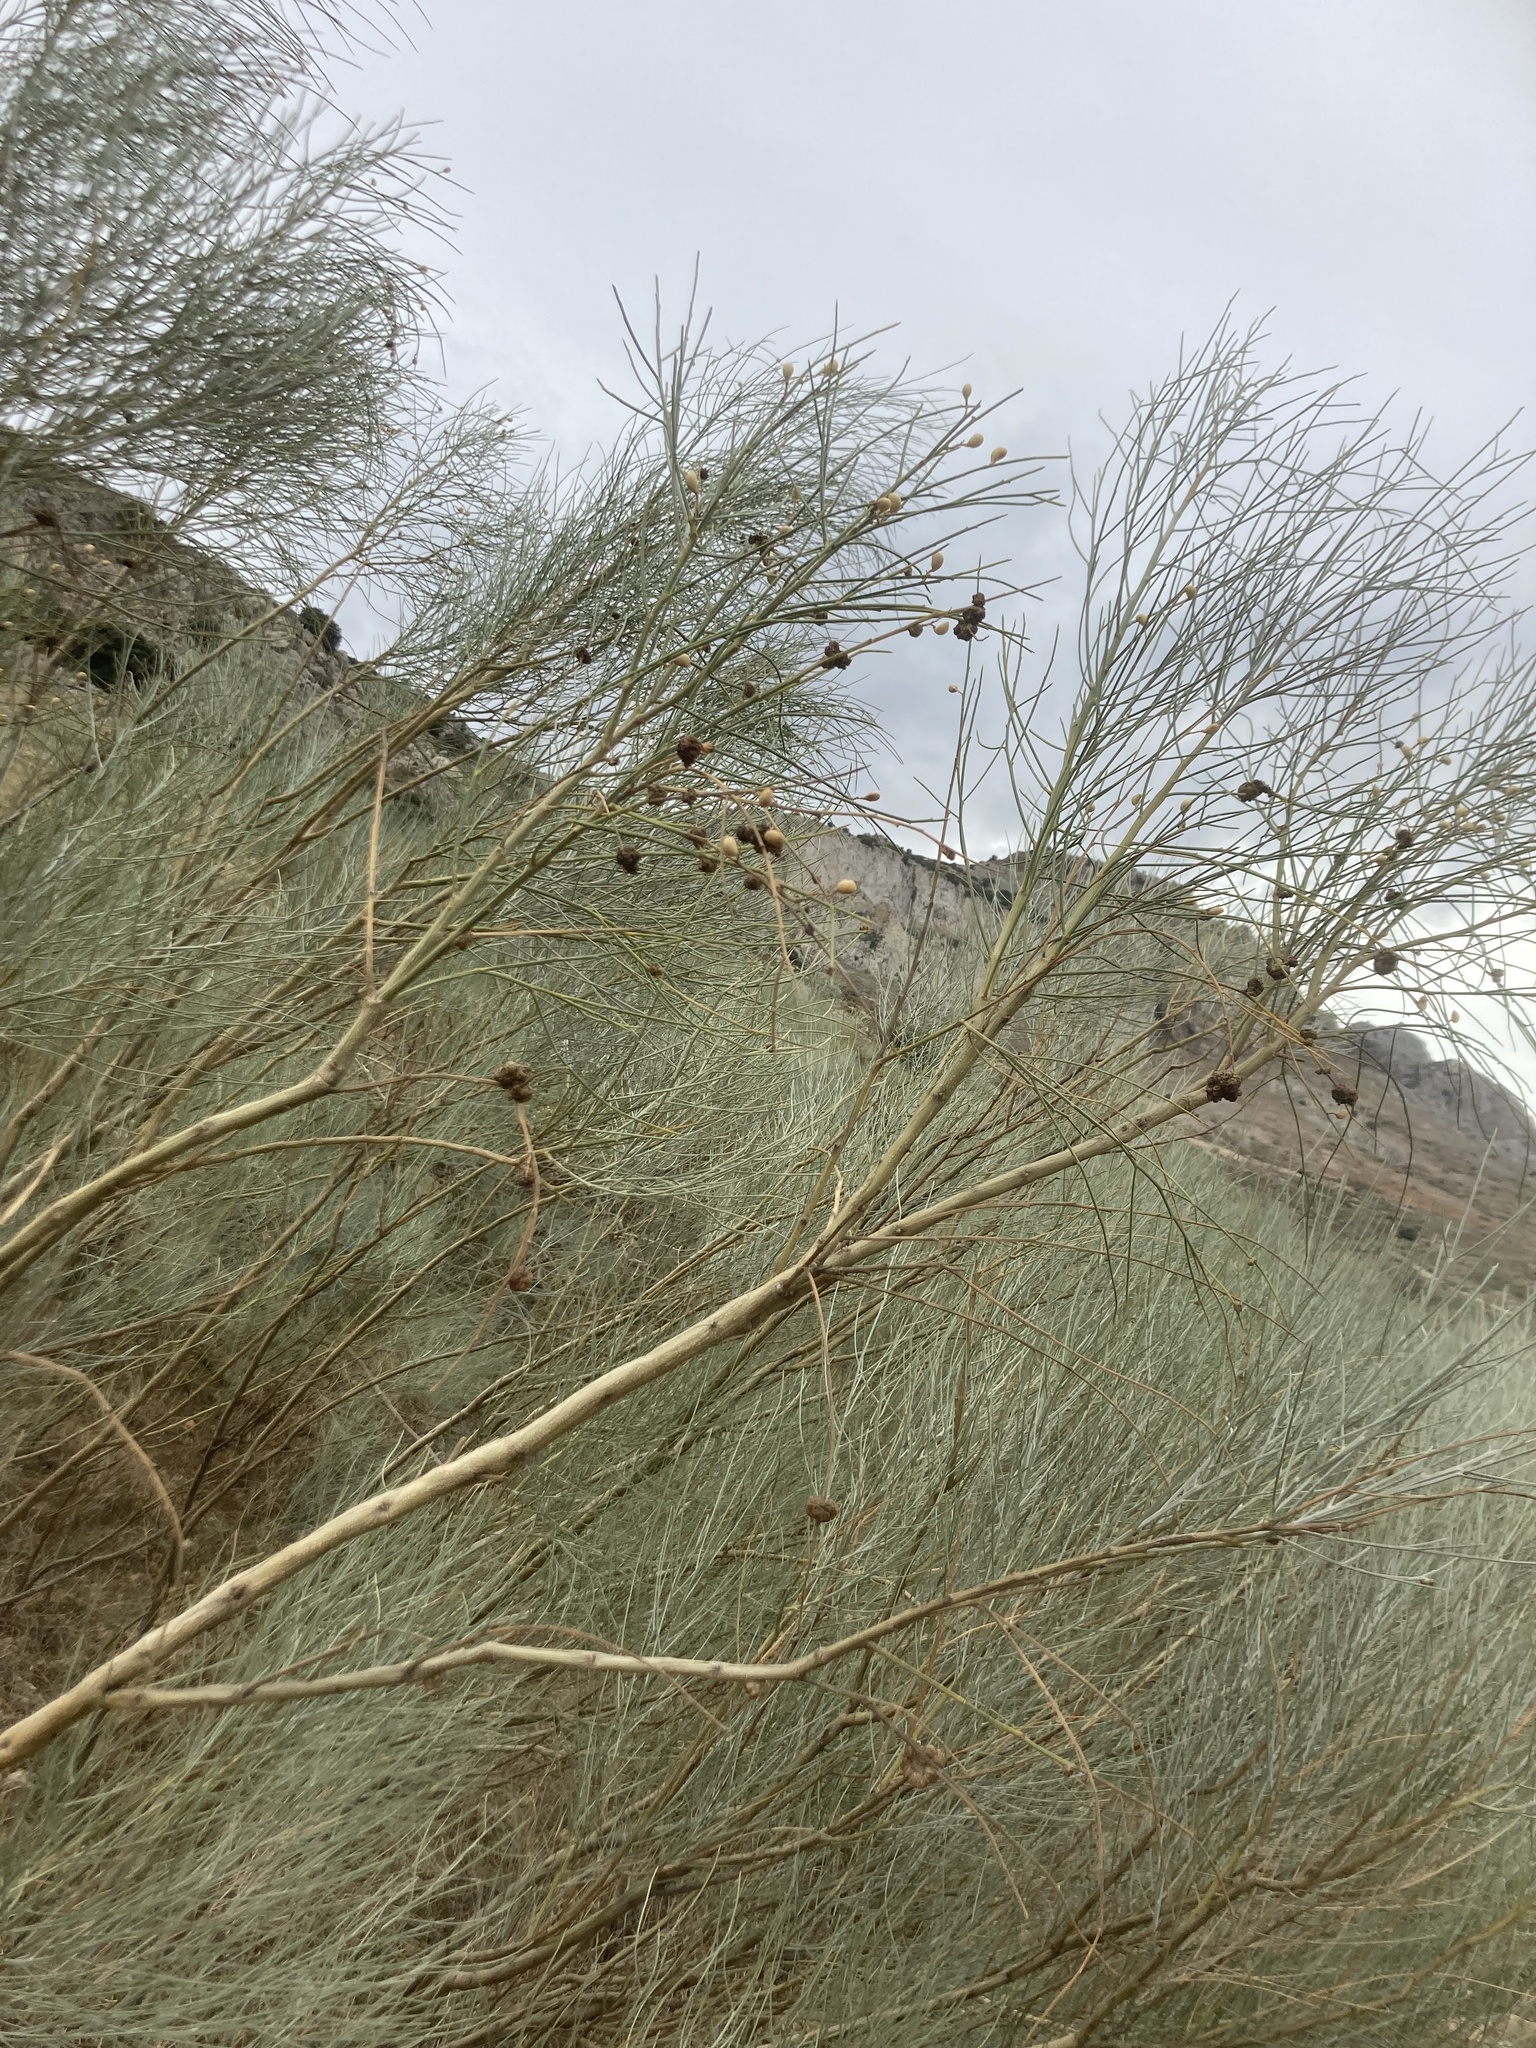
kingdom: Plantae
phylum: Tracheophyta
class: Magnoliopsida
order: Fabales
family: Fabaceae
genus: Retama
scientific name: Retama sphaerocarpa
